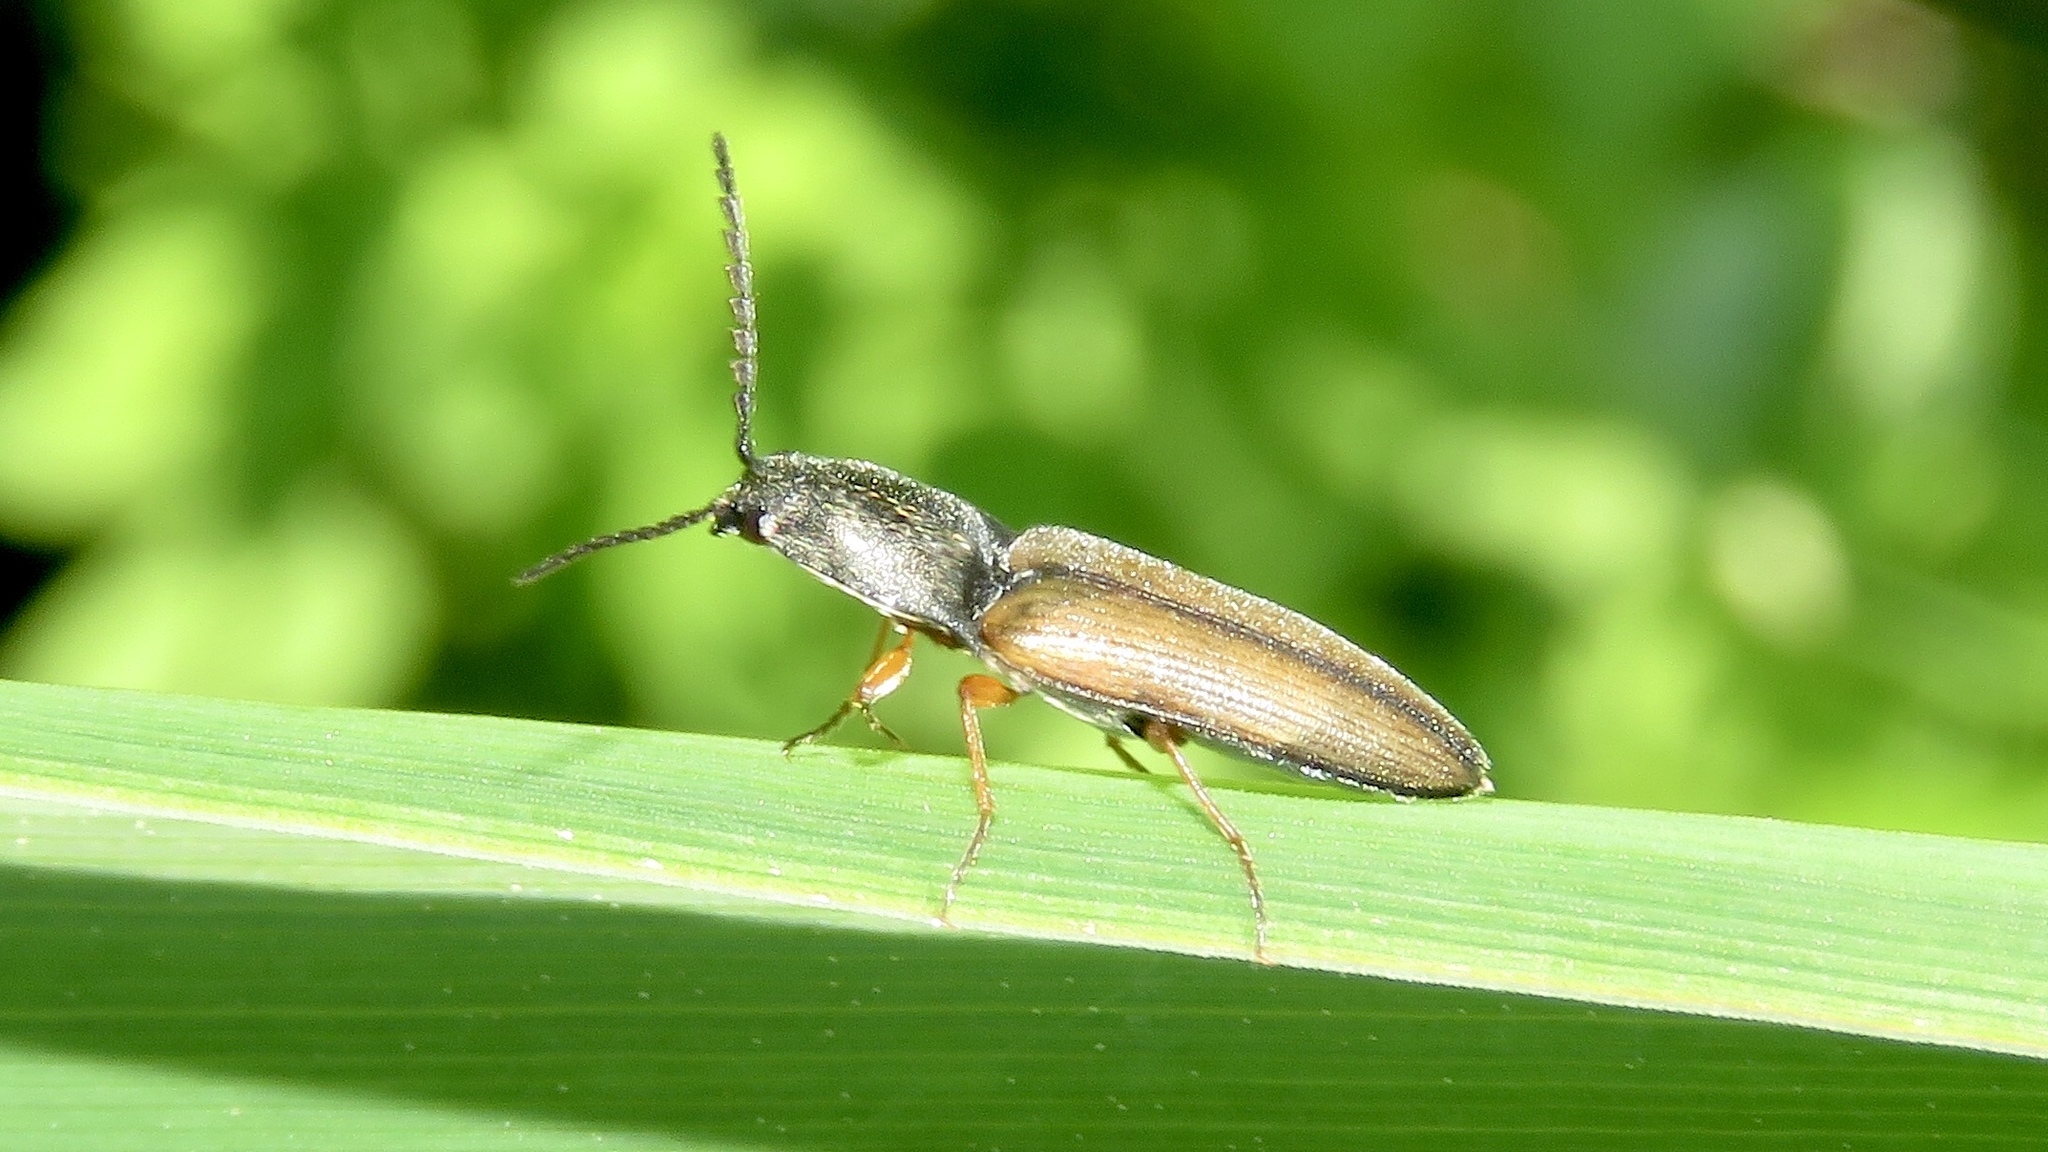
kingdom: Animalia
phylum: Arthropoda
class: Insecta
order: Coleoptera
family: Elateridae
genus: Corymbitodes
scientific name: Corymbitodes tarsalis
